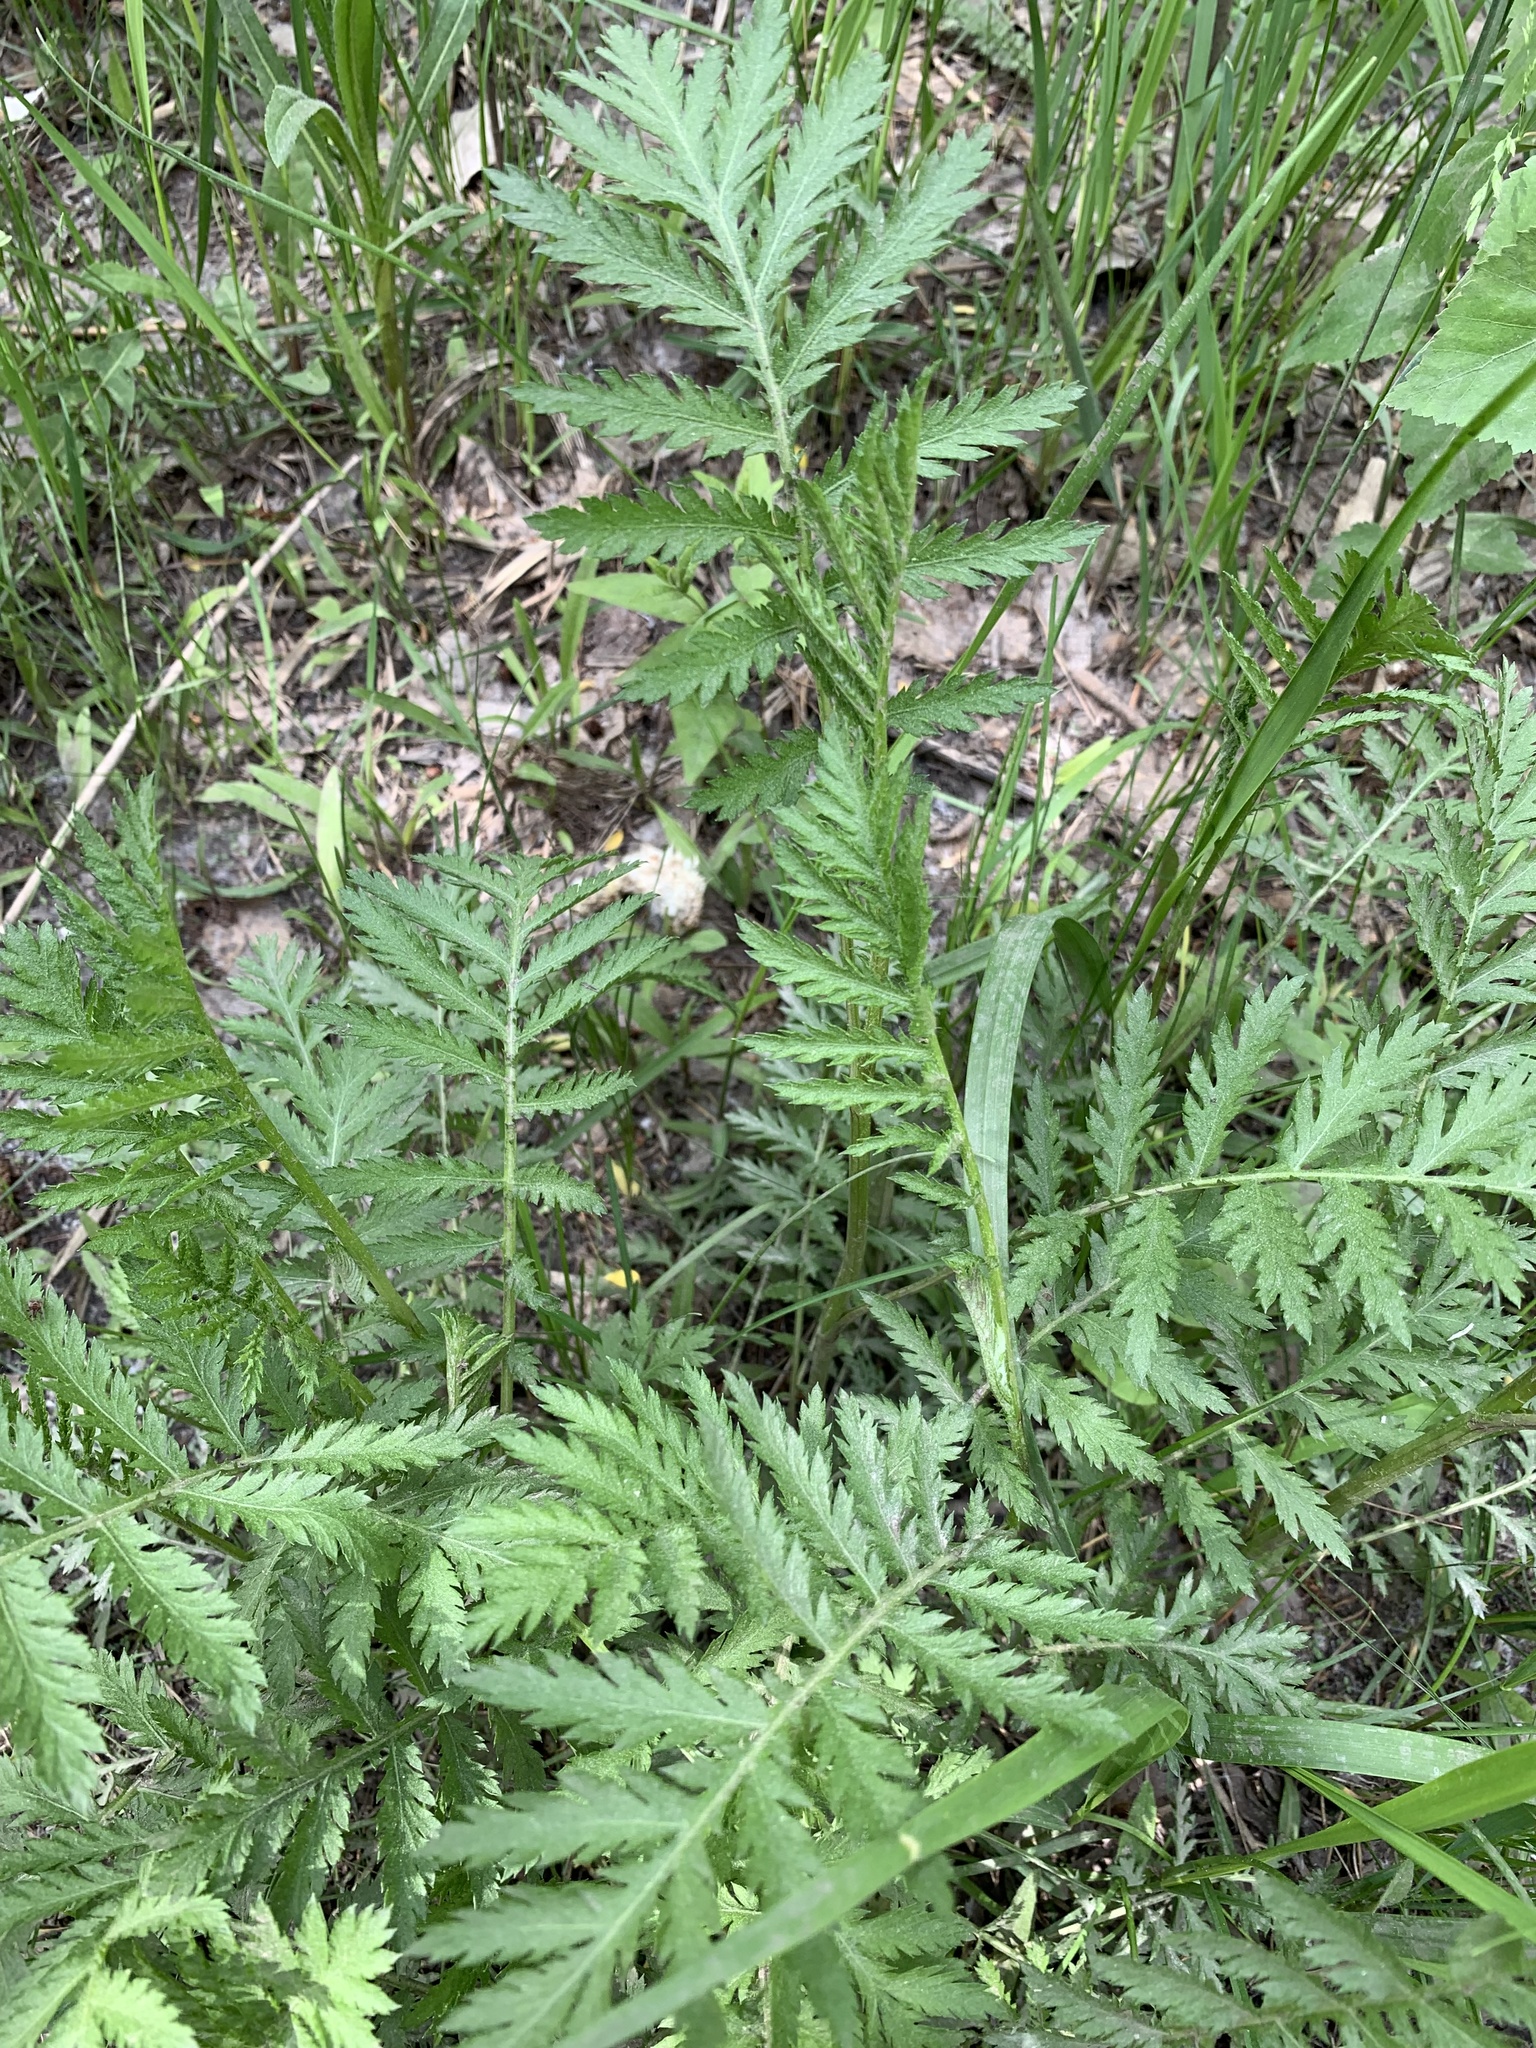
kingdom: Plantae
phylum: Tracheophyta
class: Magnoliopsida
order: Asterales
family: Asteraceae
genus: Tanacetum
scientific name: Tanacetum vulgare
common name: Common tansy
